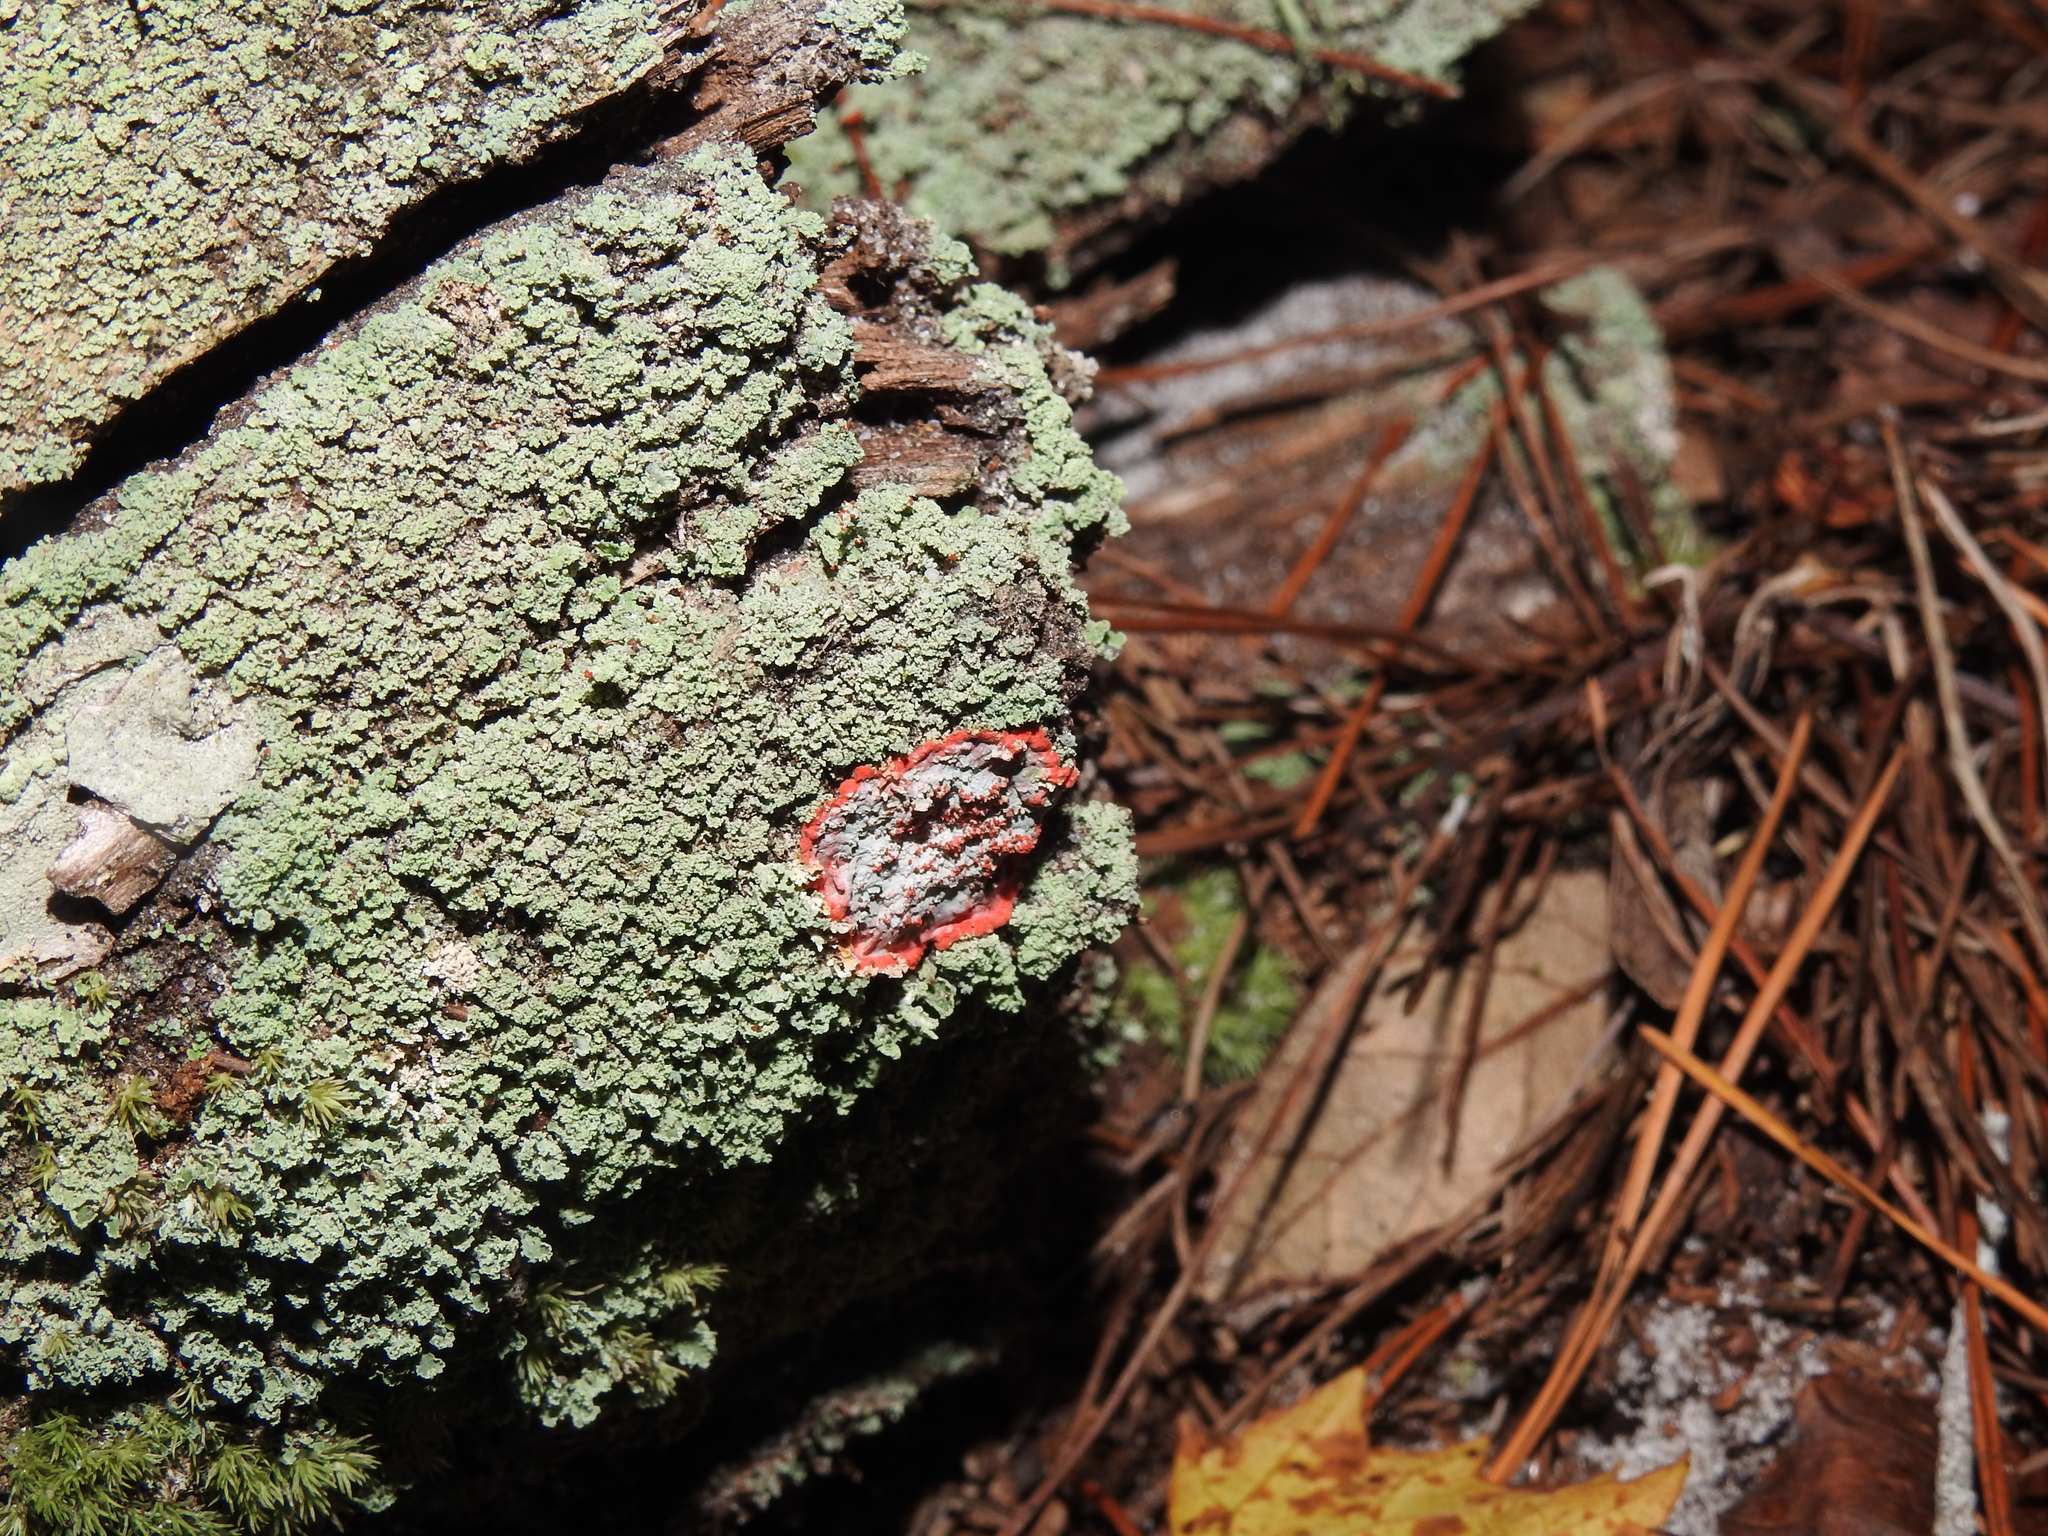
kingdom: Fungi
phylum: Ascomycota
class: Arthoniomycetes
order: Arthoniales
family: Arthoniaceae
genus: Herpothallon
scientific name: Herpothallon rubrocinctum
